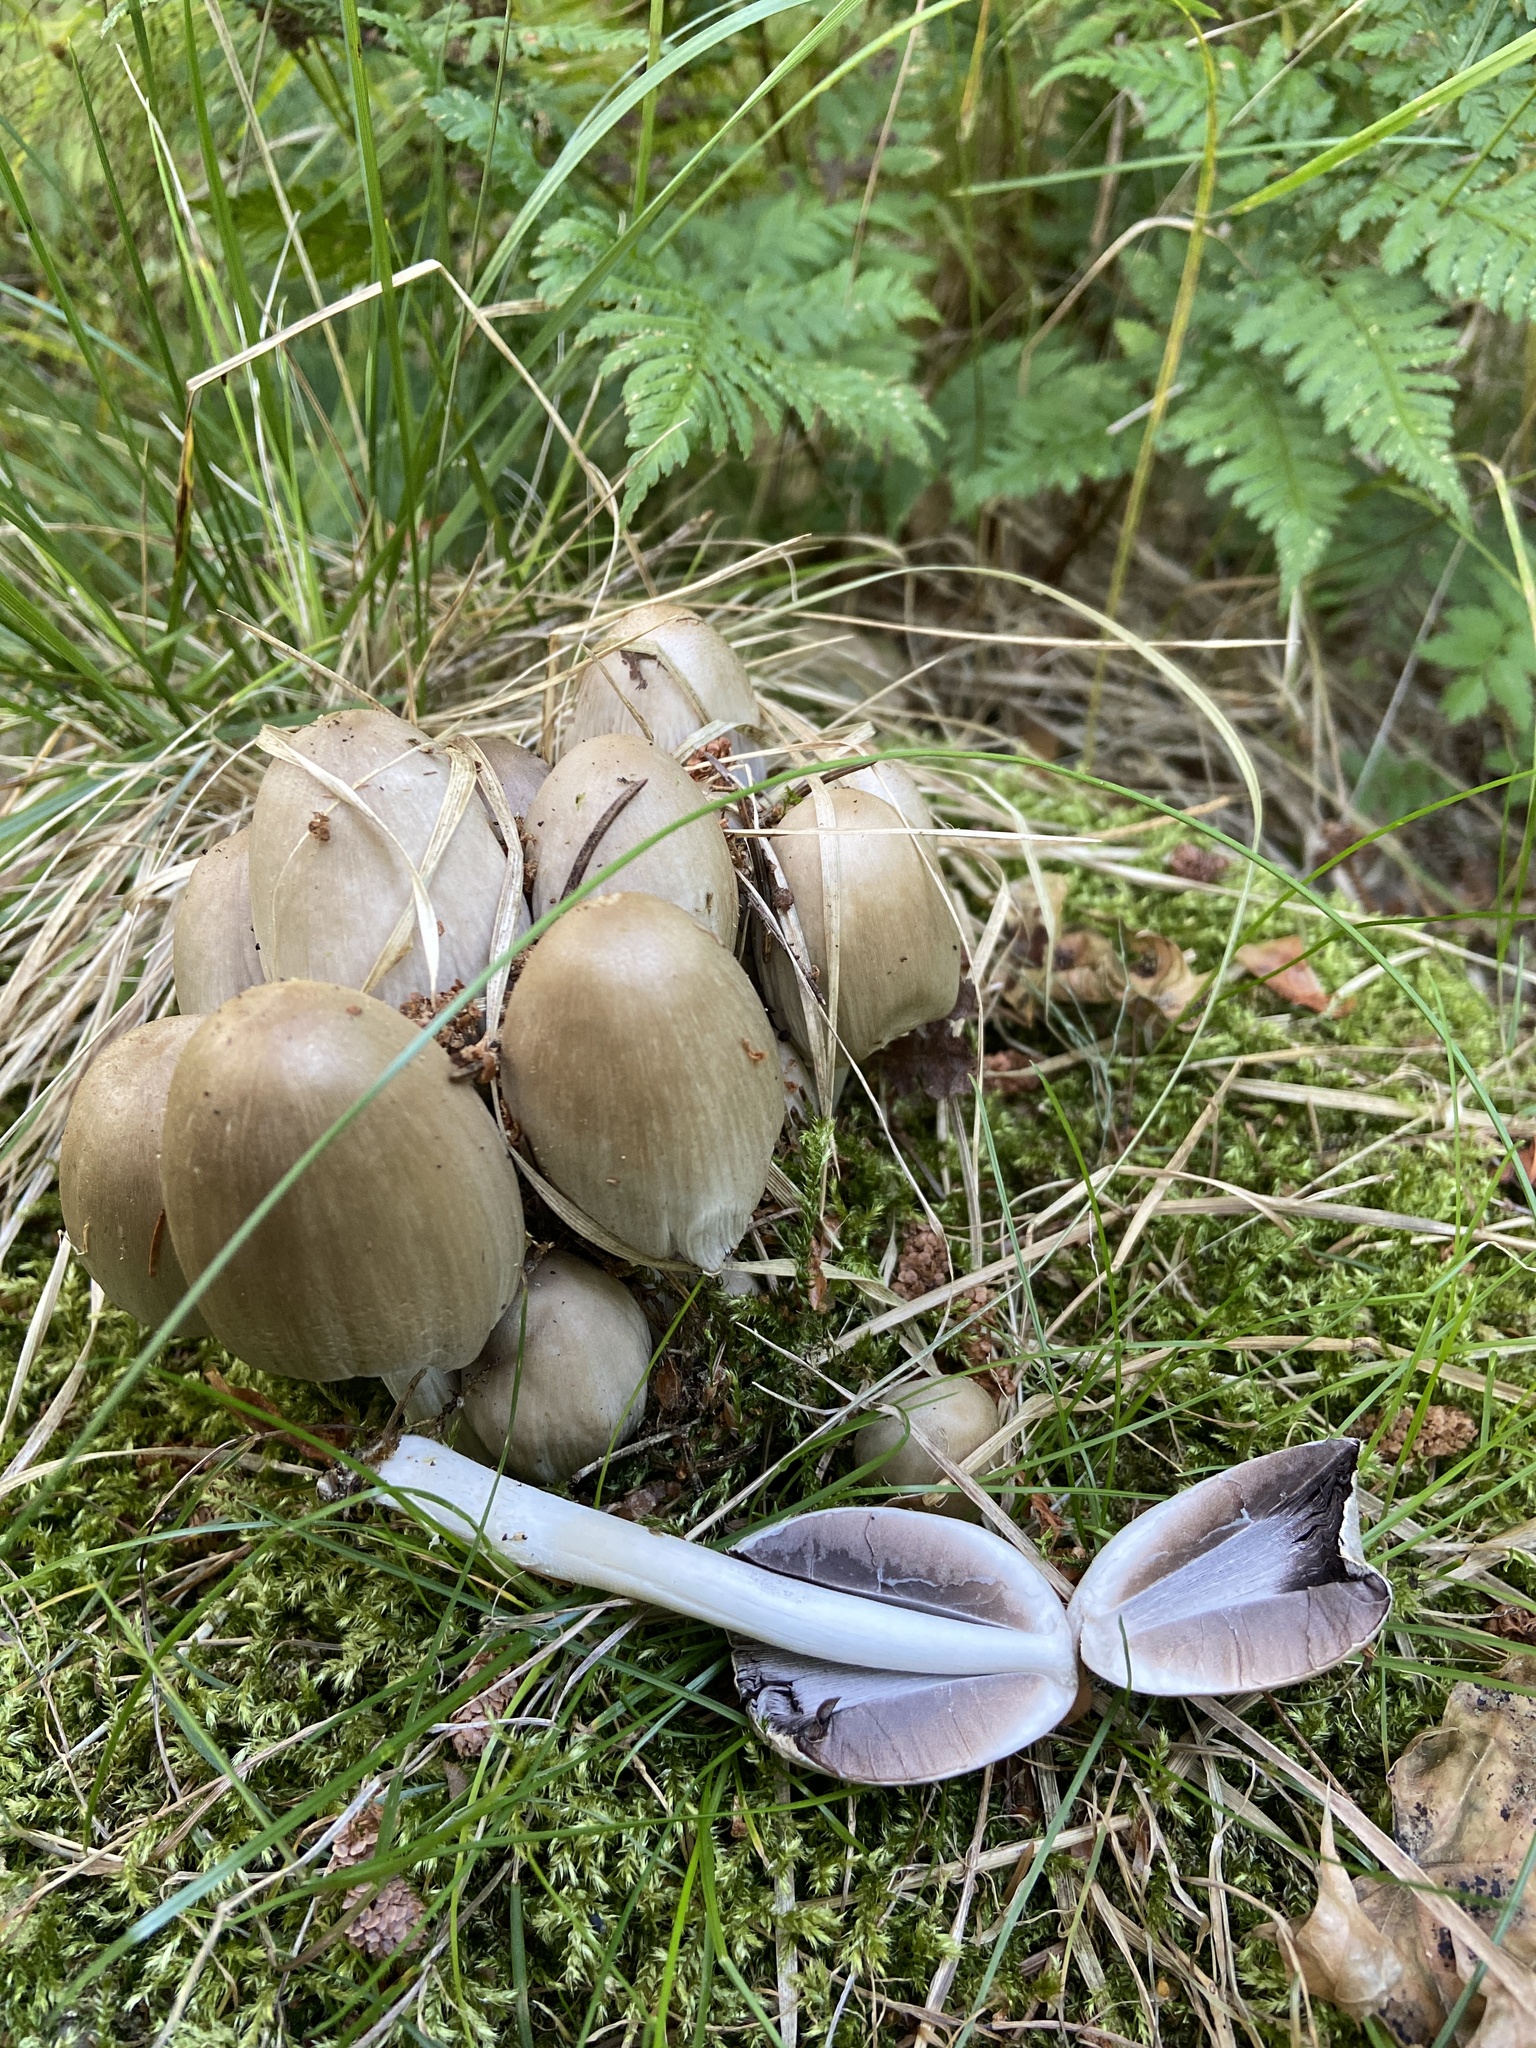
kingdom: Fungi
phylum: Basidiomycota
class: Agaricomycetes
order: Agaricales
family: Psathyrellaceae
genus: Coprinopsis
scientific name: Coprinopsis atramentaria
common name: Common ink-cap
